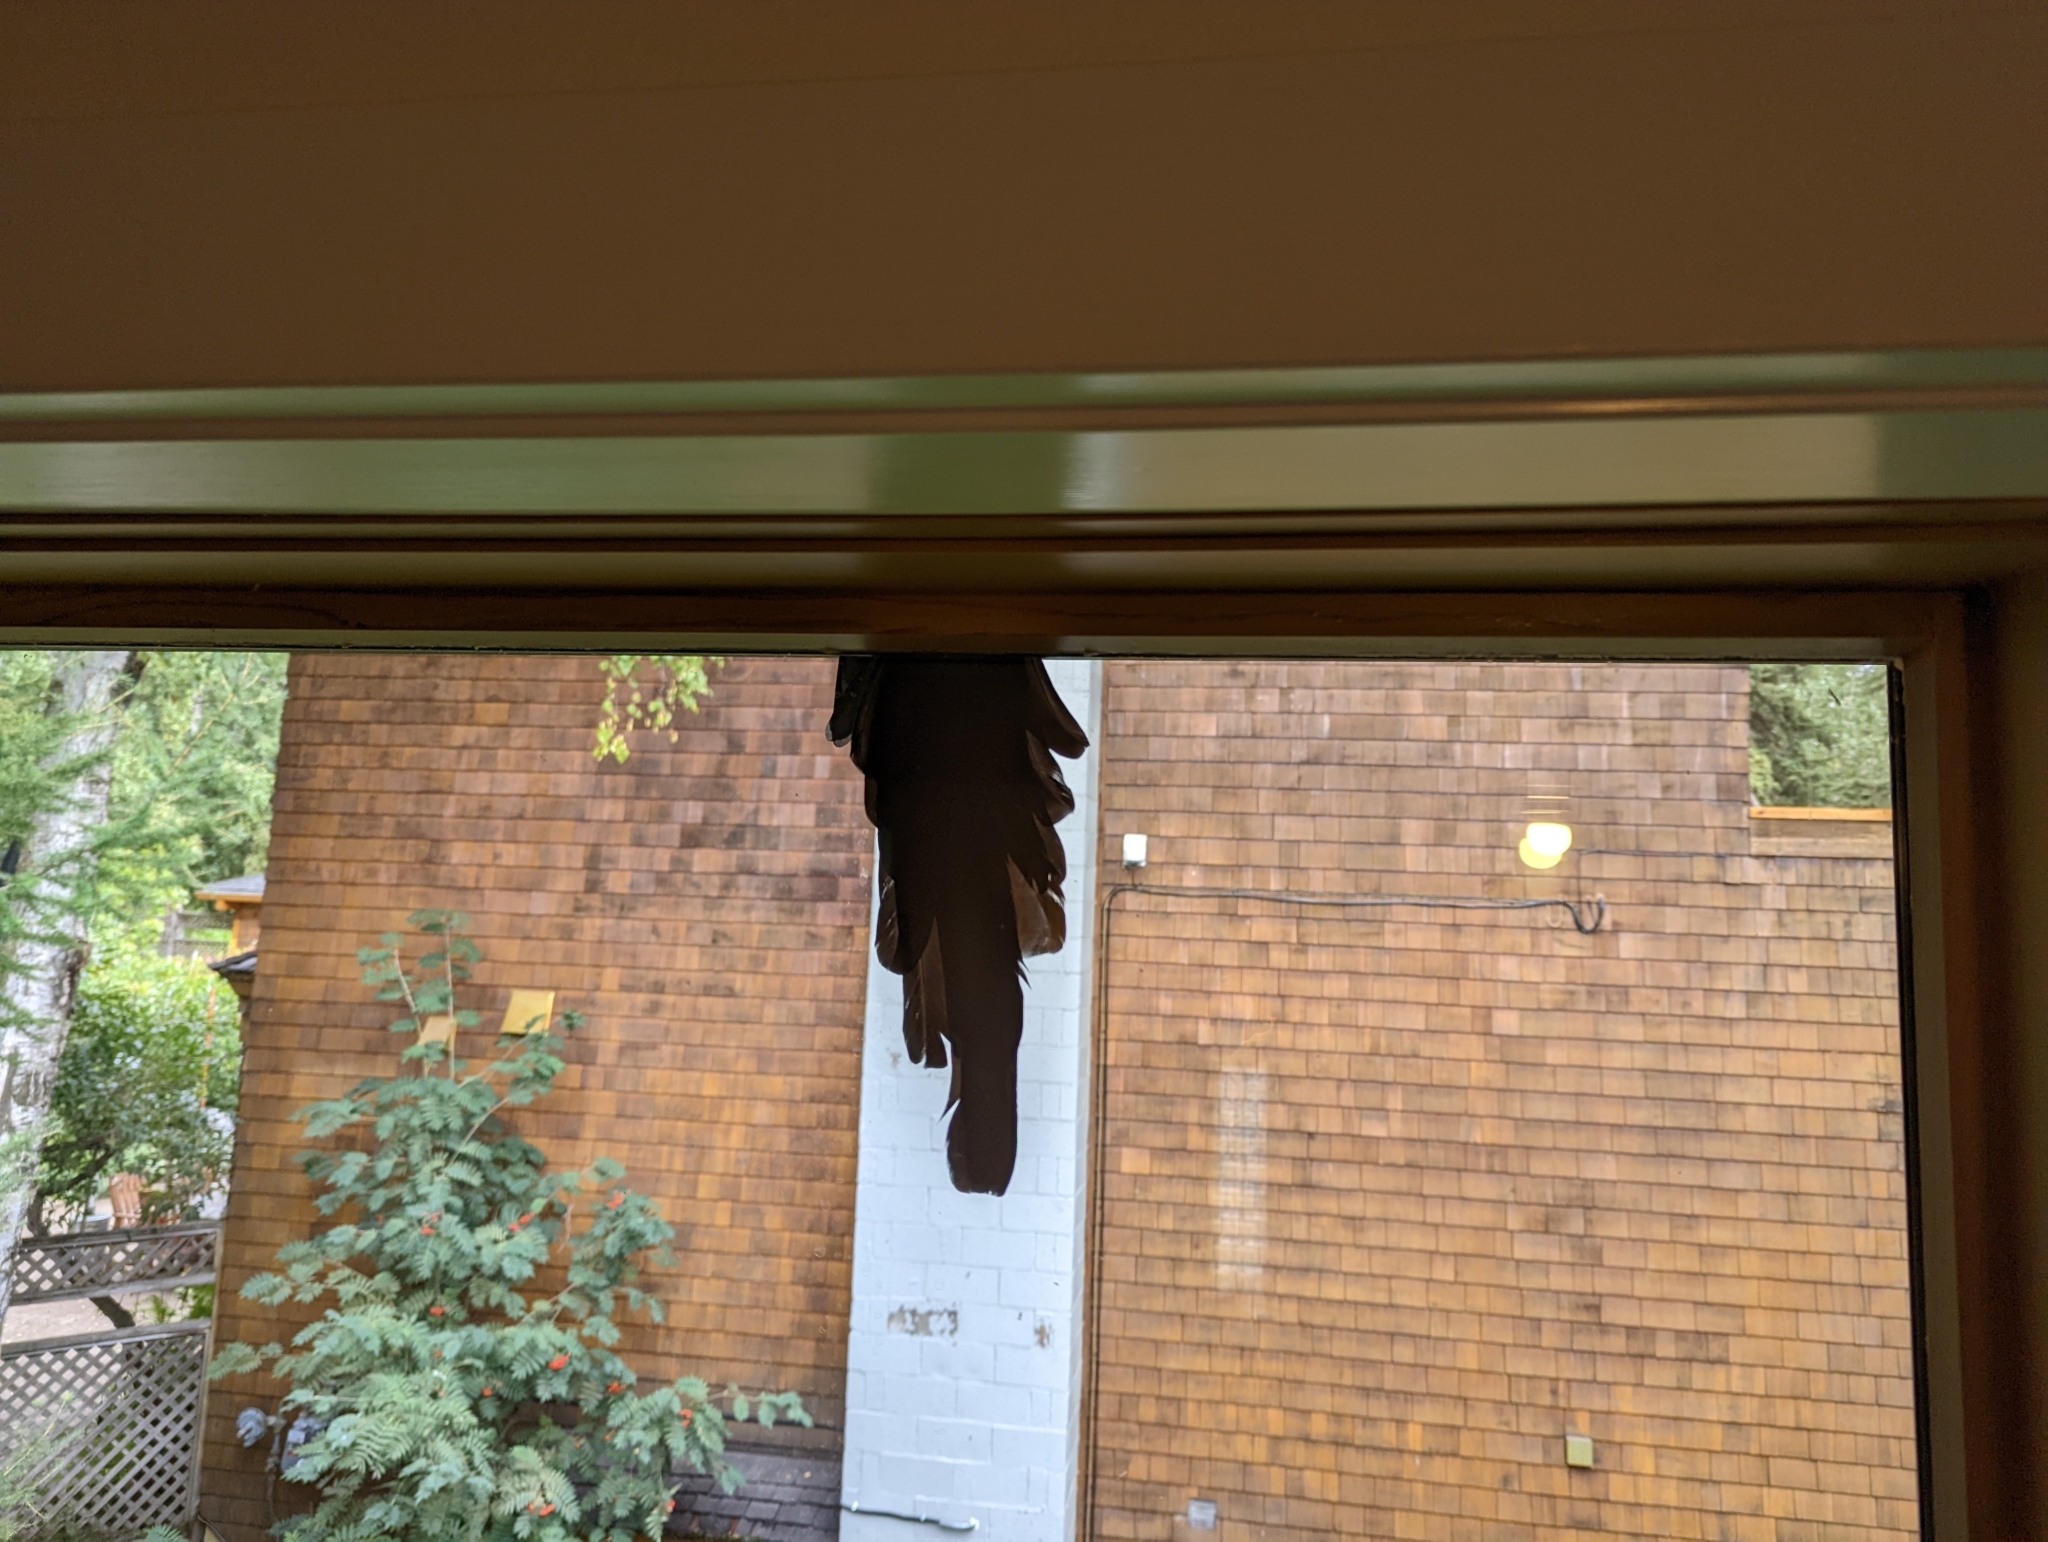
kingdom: Animalia
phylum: Chordata
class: Aves
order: Passeriformes
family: Corvidae
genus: Pica
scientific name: Pica hudsonia
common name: Black-billed magpie
